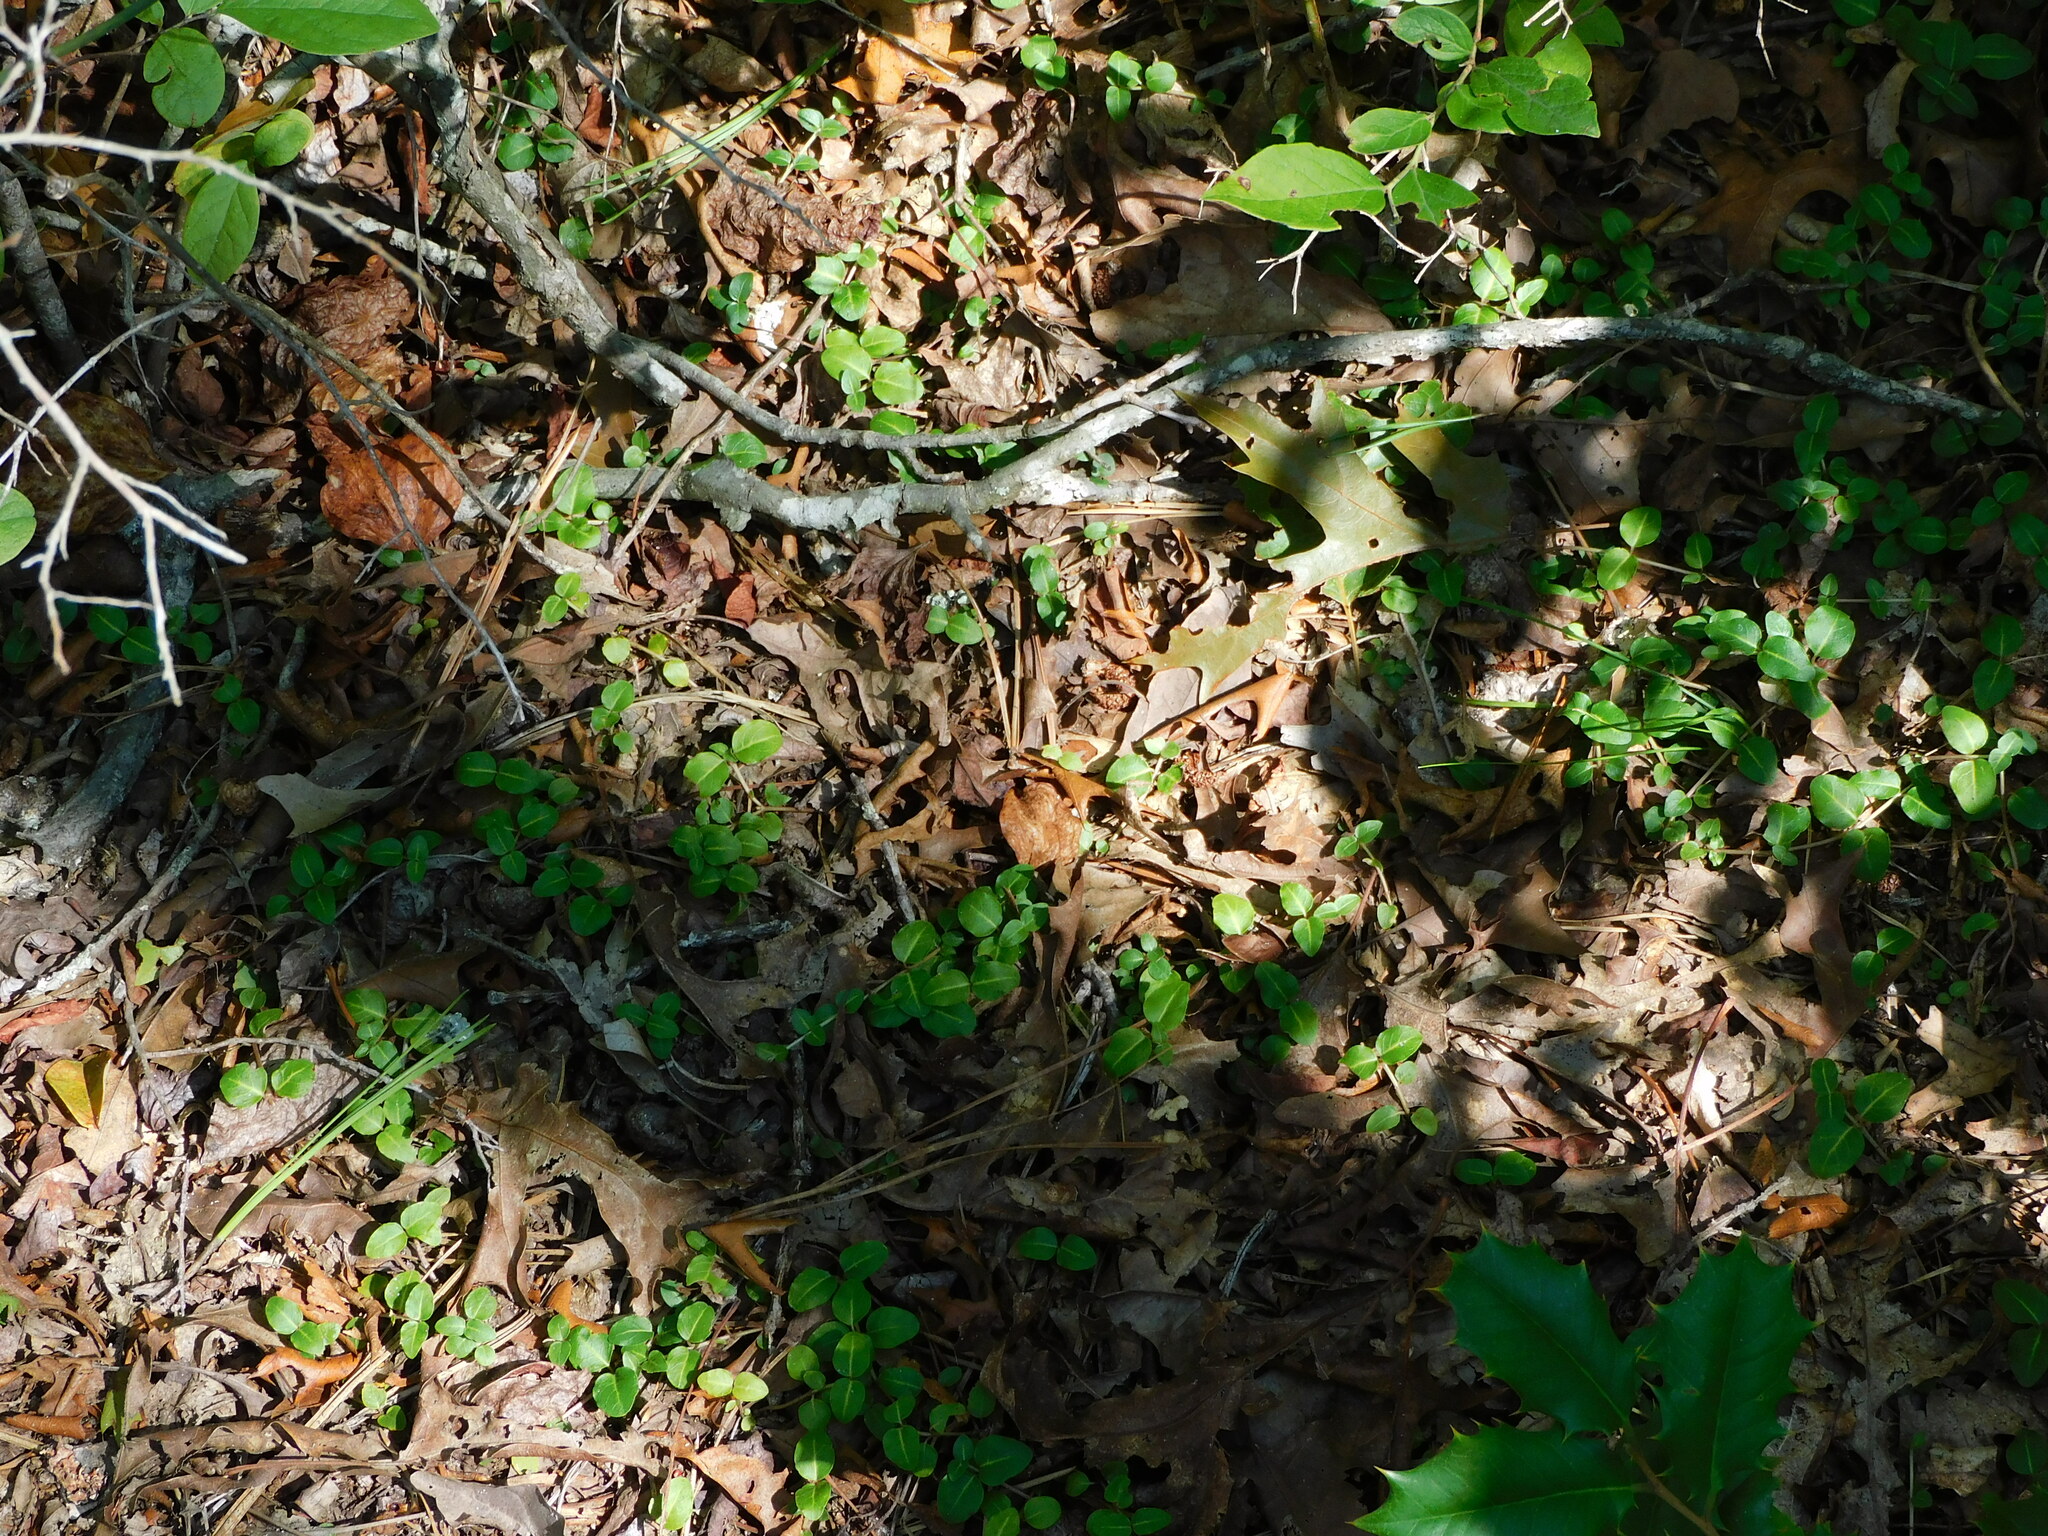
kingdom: Plantae
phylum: Tracheophyta
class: Magnoliopsida
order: Gentianales
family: Rubiaceae
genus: Mitchella
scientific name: Mitchella repens
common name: Partridge-berry
